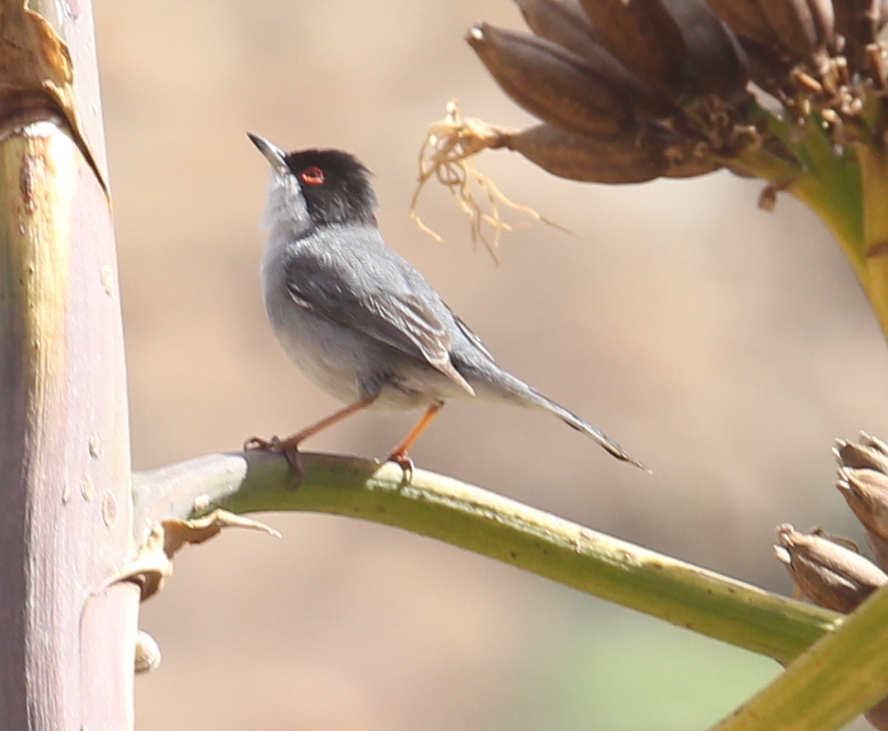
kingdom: Animalia
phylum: Chordata
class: Aves
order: Passeriformes
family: Sylviidae
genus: Curruca
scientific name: Curruca melanocephala
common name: Sardinian warbler
